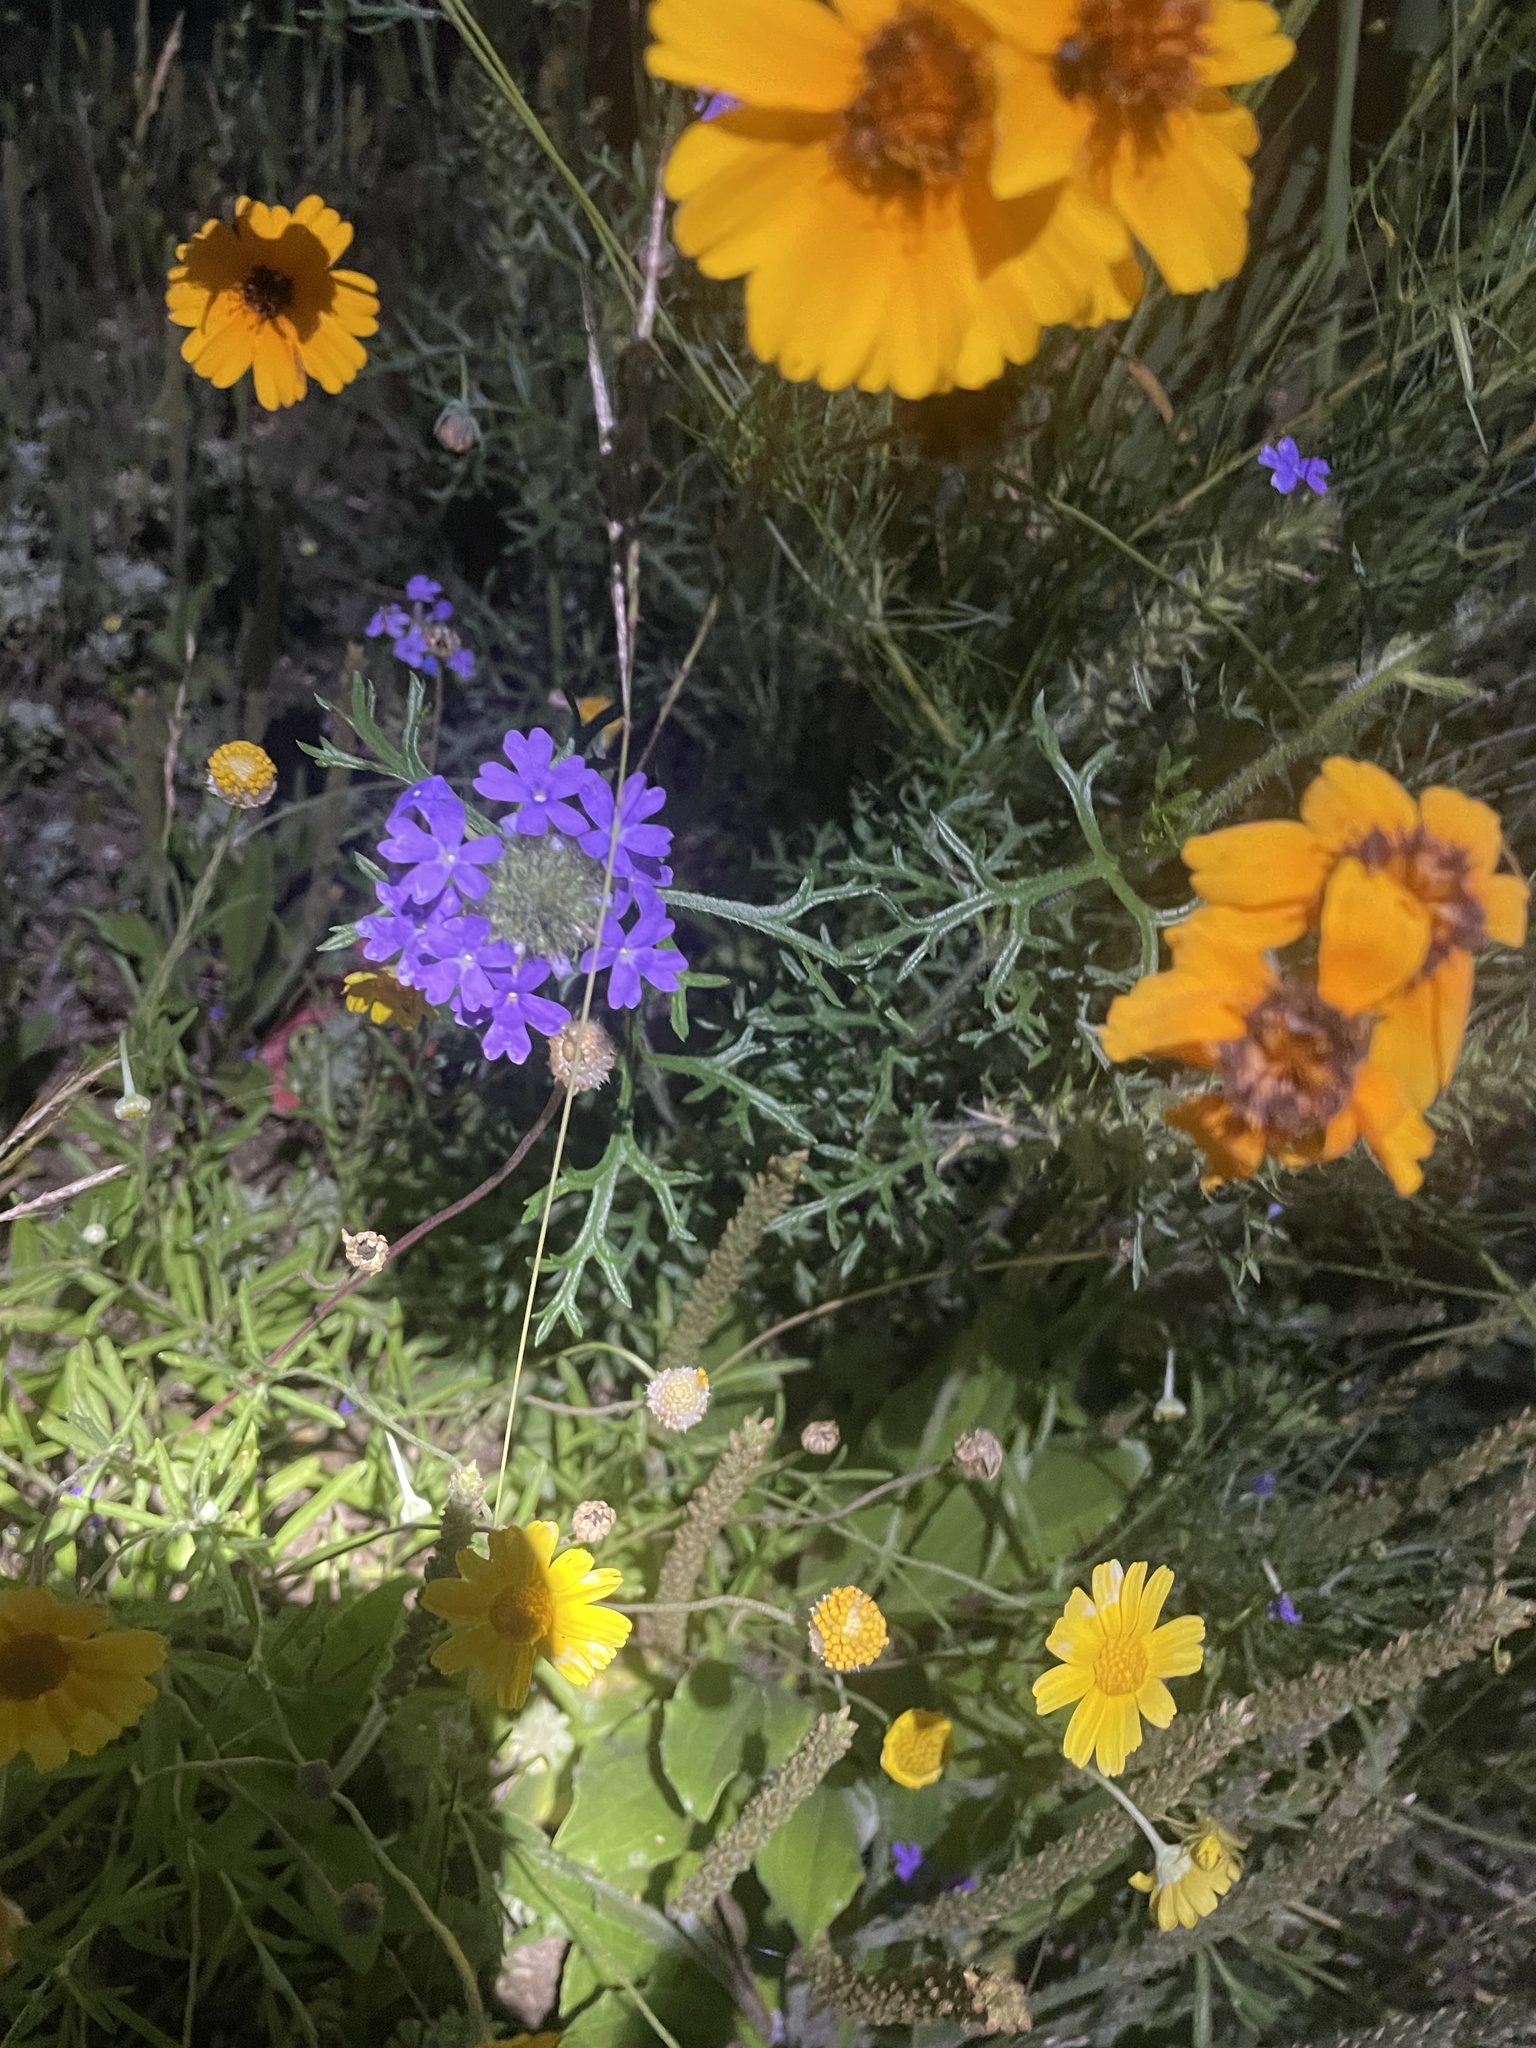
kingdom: Plantae
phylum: Tracheophyta
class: Magnoliopsida
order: Lamiales
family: Verbenaceae
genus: Verbena
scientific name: Verbena bipinnatifida
